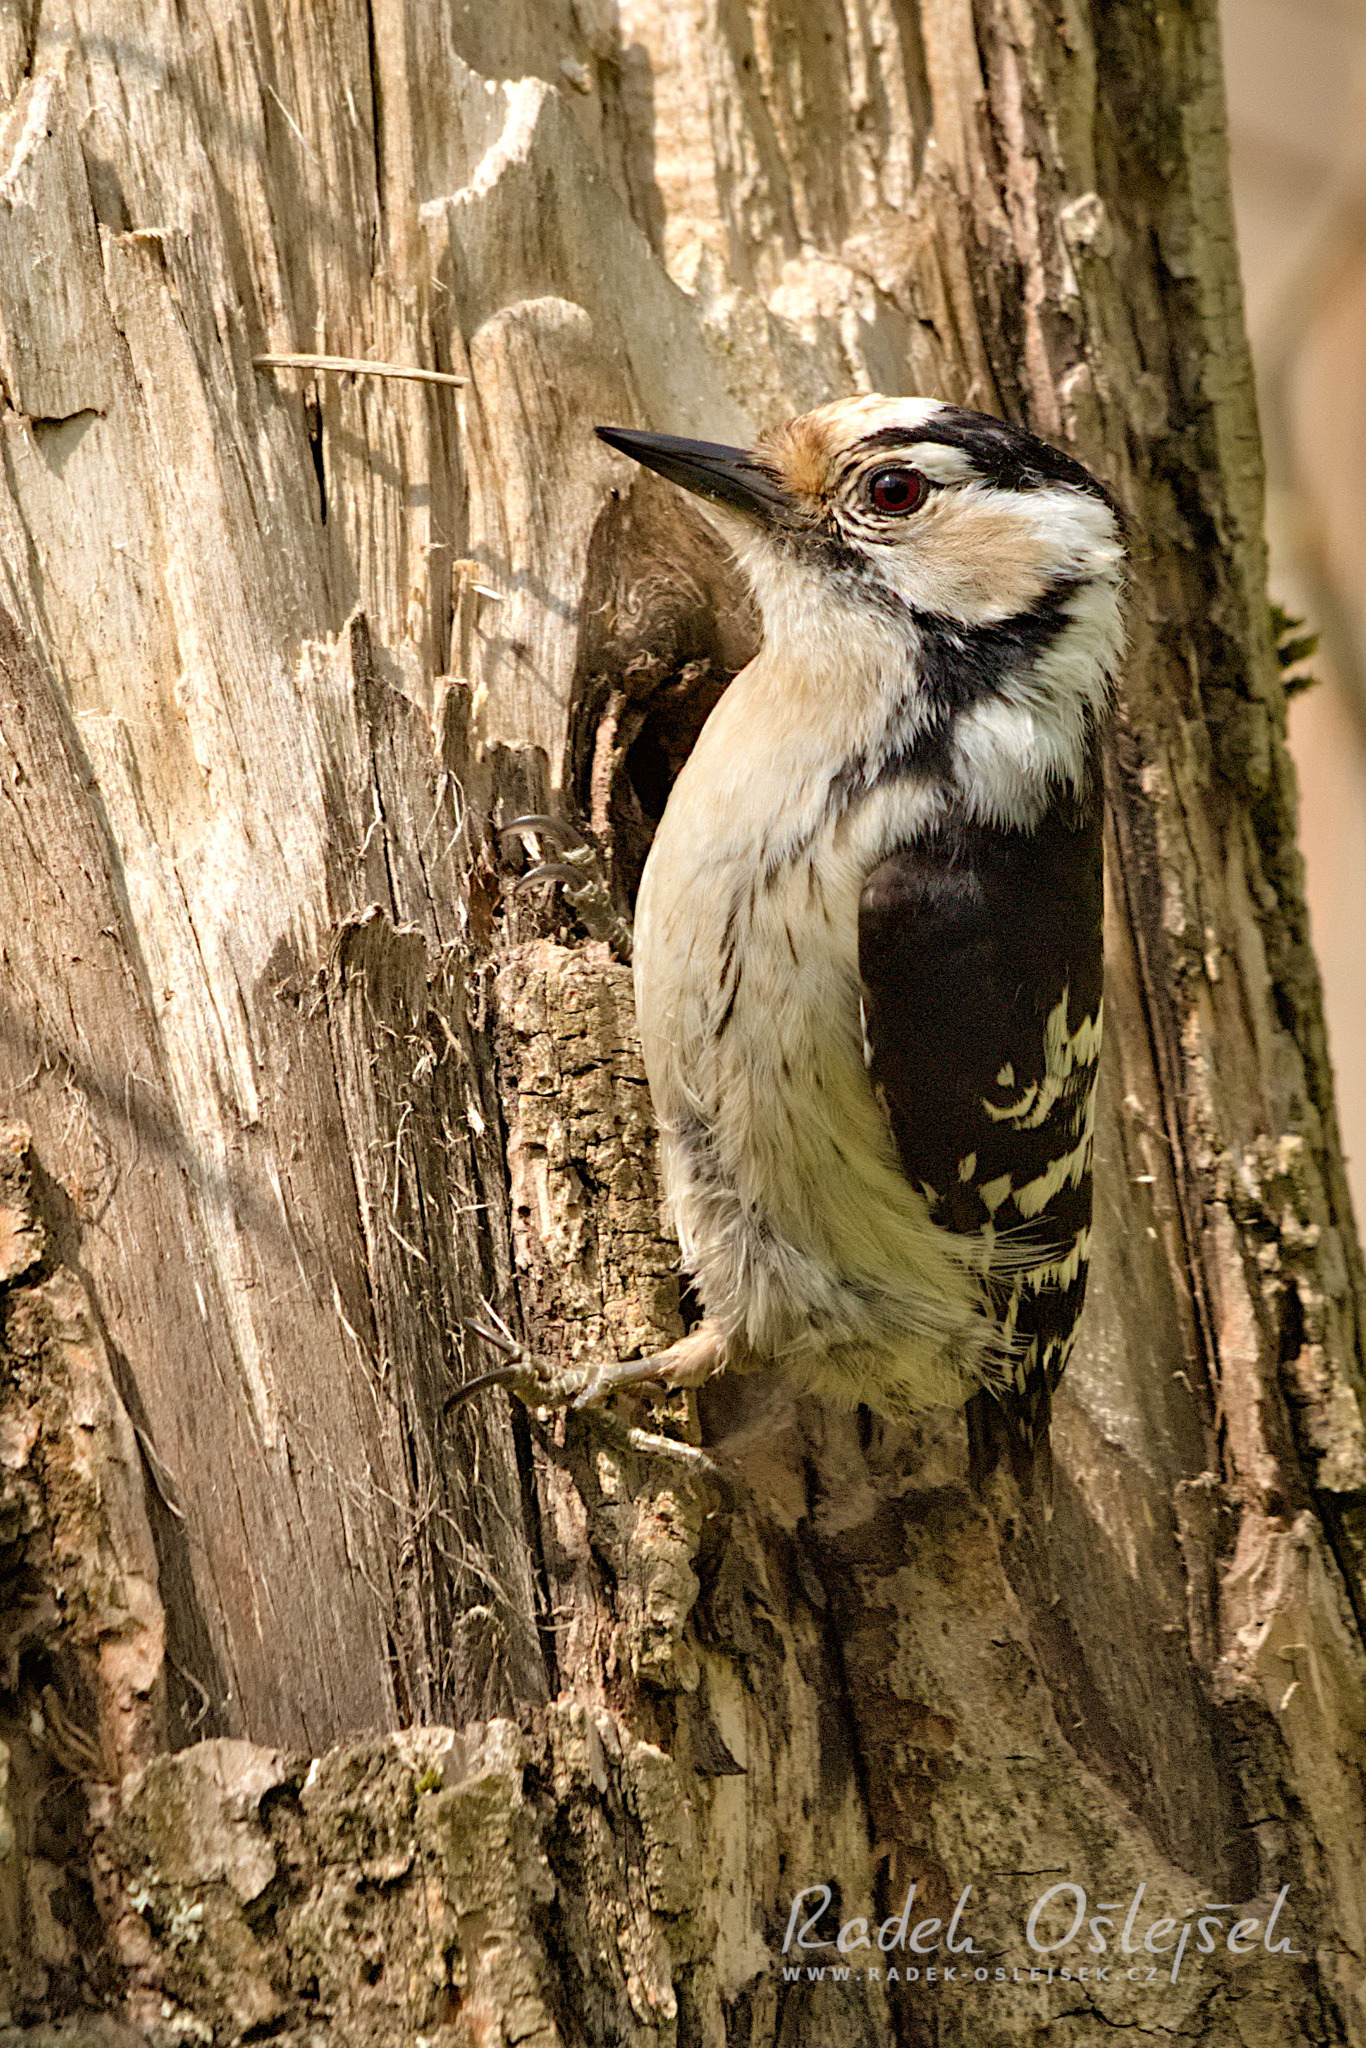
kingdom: Animalia
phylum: Chordata
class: Aves
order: Piciformes
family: Picidae
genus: Dryobates
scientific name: Dryobates minor
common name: Lesser spotted woodpecker
